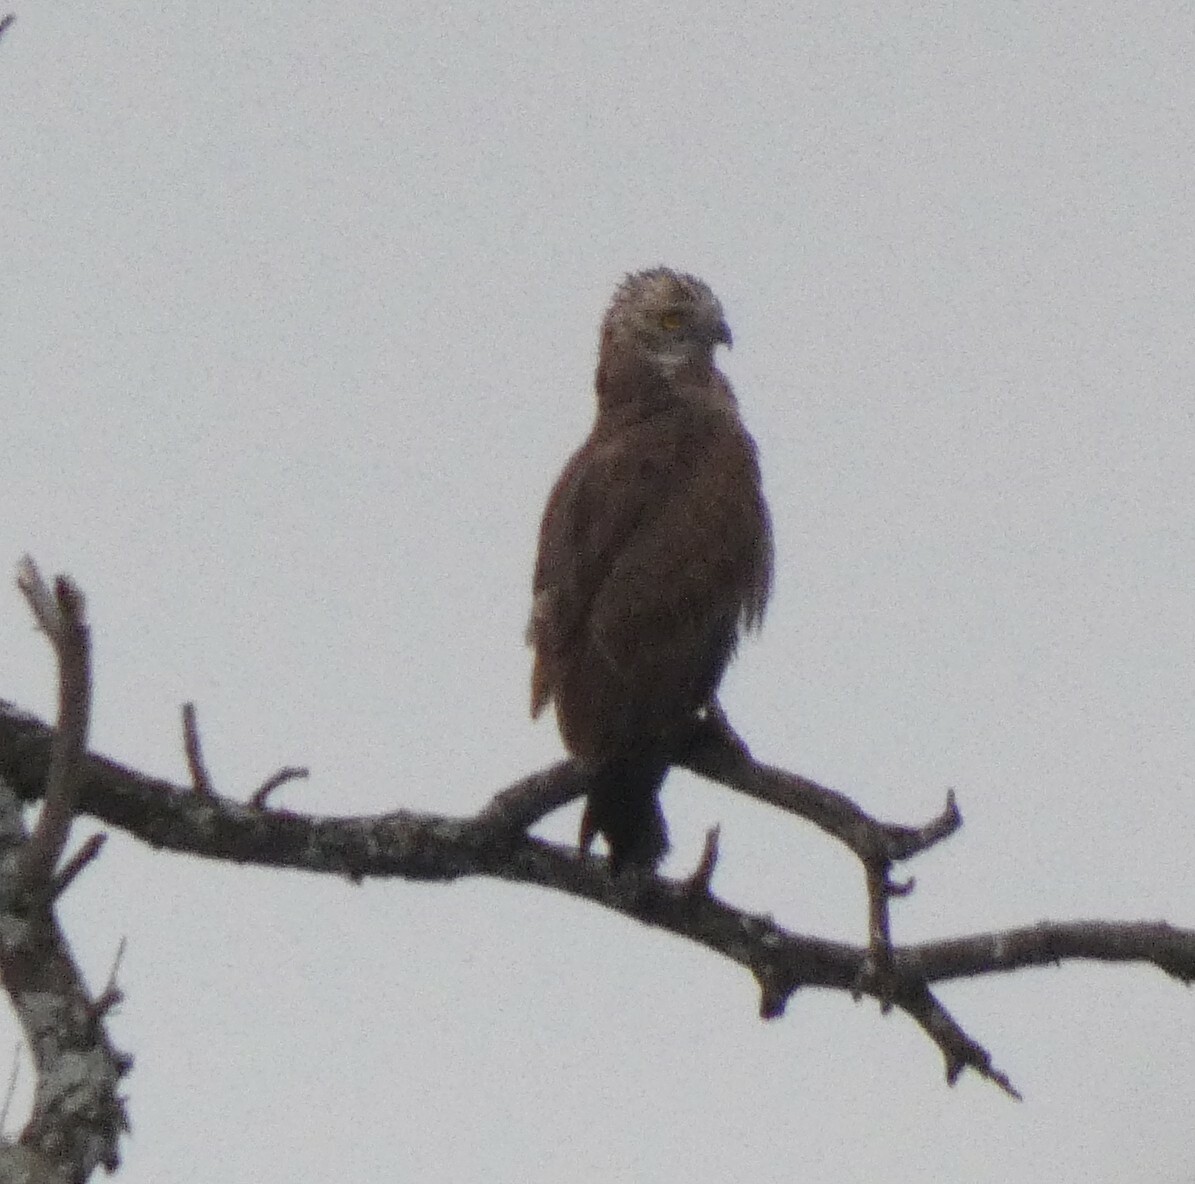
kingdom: Animalia
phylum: Chordata
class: Aves
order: Accipitriformes
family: Accipitridae
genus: Circaetus
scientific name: Circaetus cinereus
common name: Brown snake eagle
